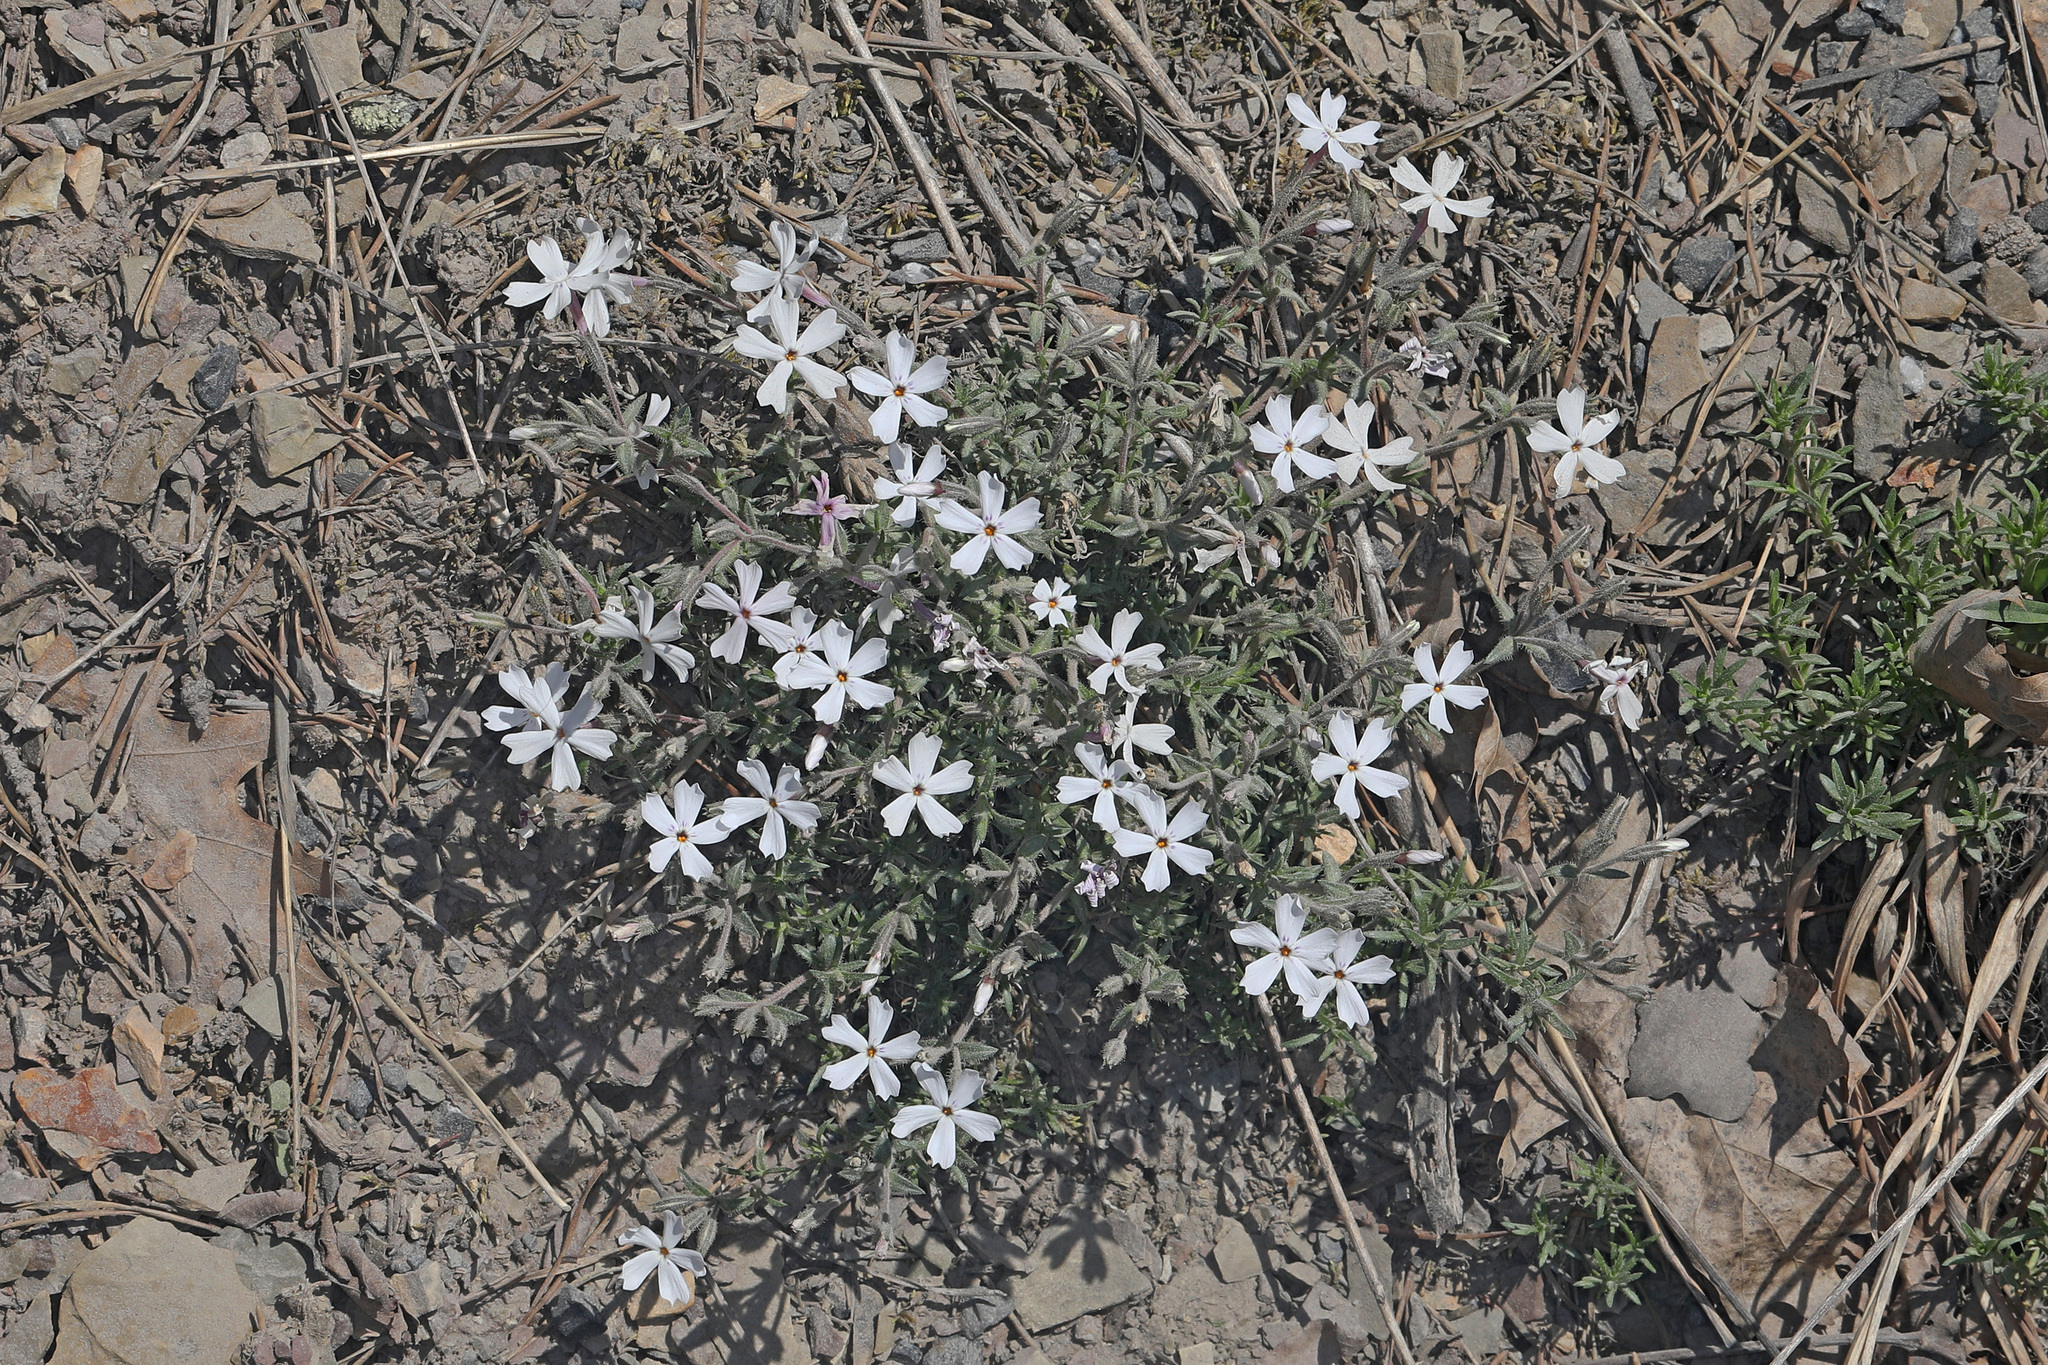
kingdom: Plantae
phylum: Tracheophyta
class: Magnoliopsida
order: Ericales
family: Polemoniaceae
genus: Phlox
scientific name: Phlox subulata
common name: Moss phlox
